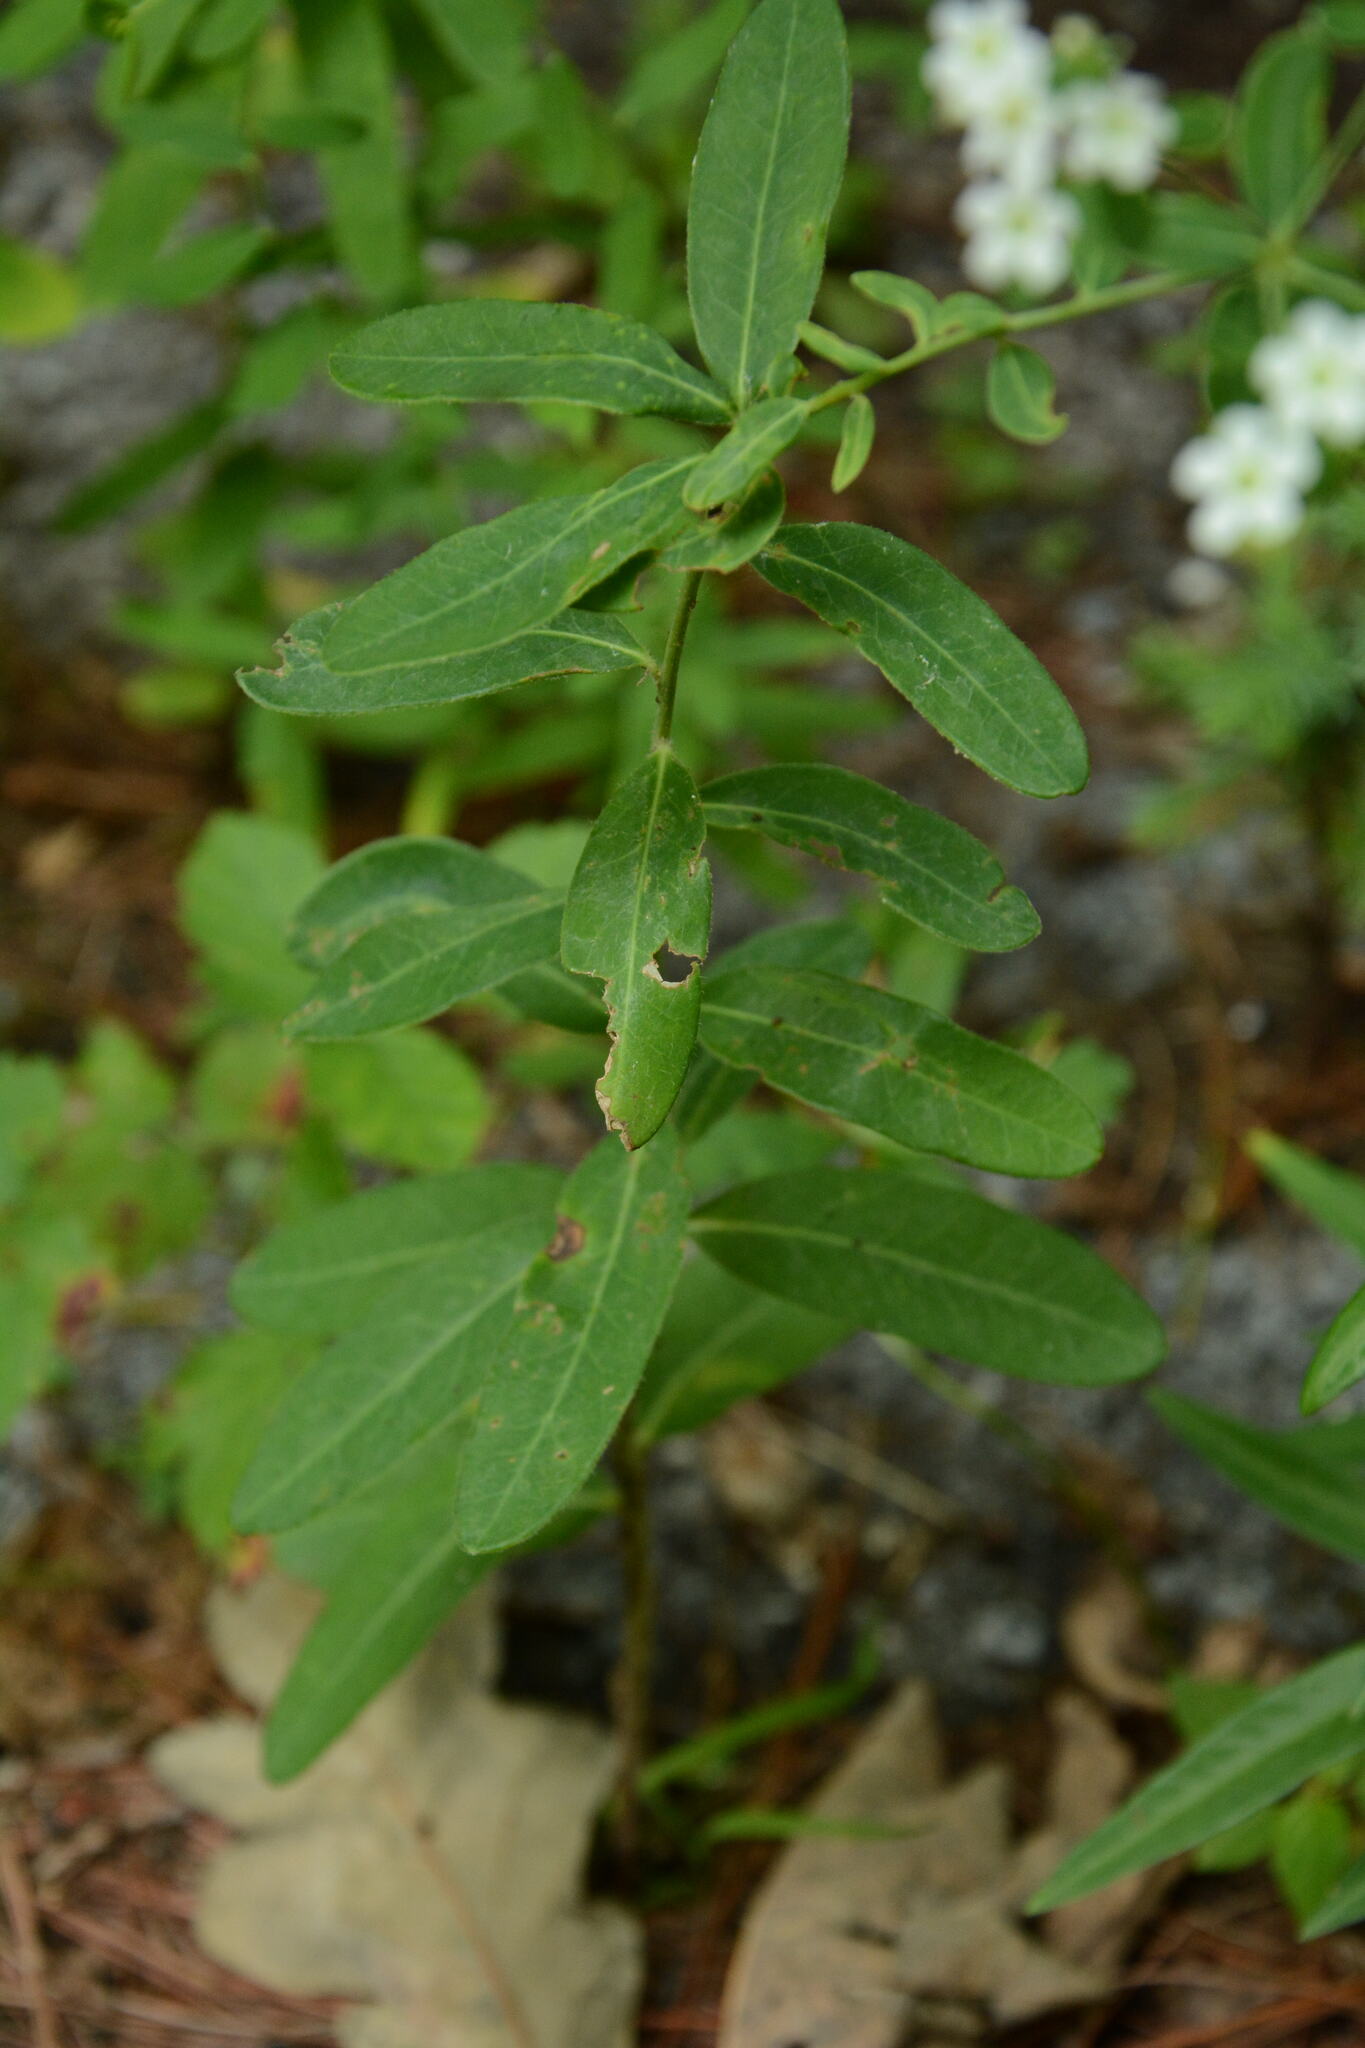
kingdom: Plantae
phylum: Tracheophyta
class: Magnoliopsida
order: Malpighiales
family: Euphorbiaceae
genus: Euphorbia
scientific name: Euphorbia corollata
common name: Flowering spurge
